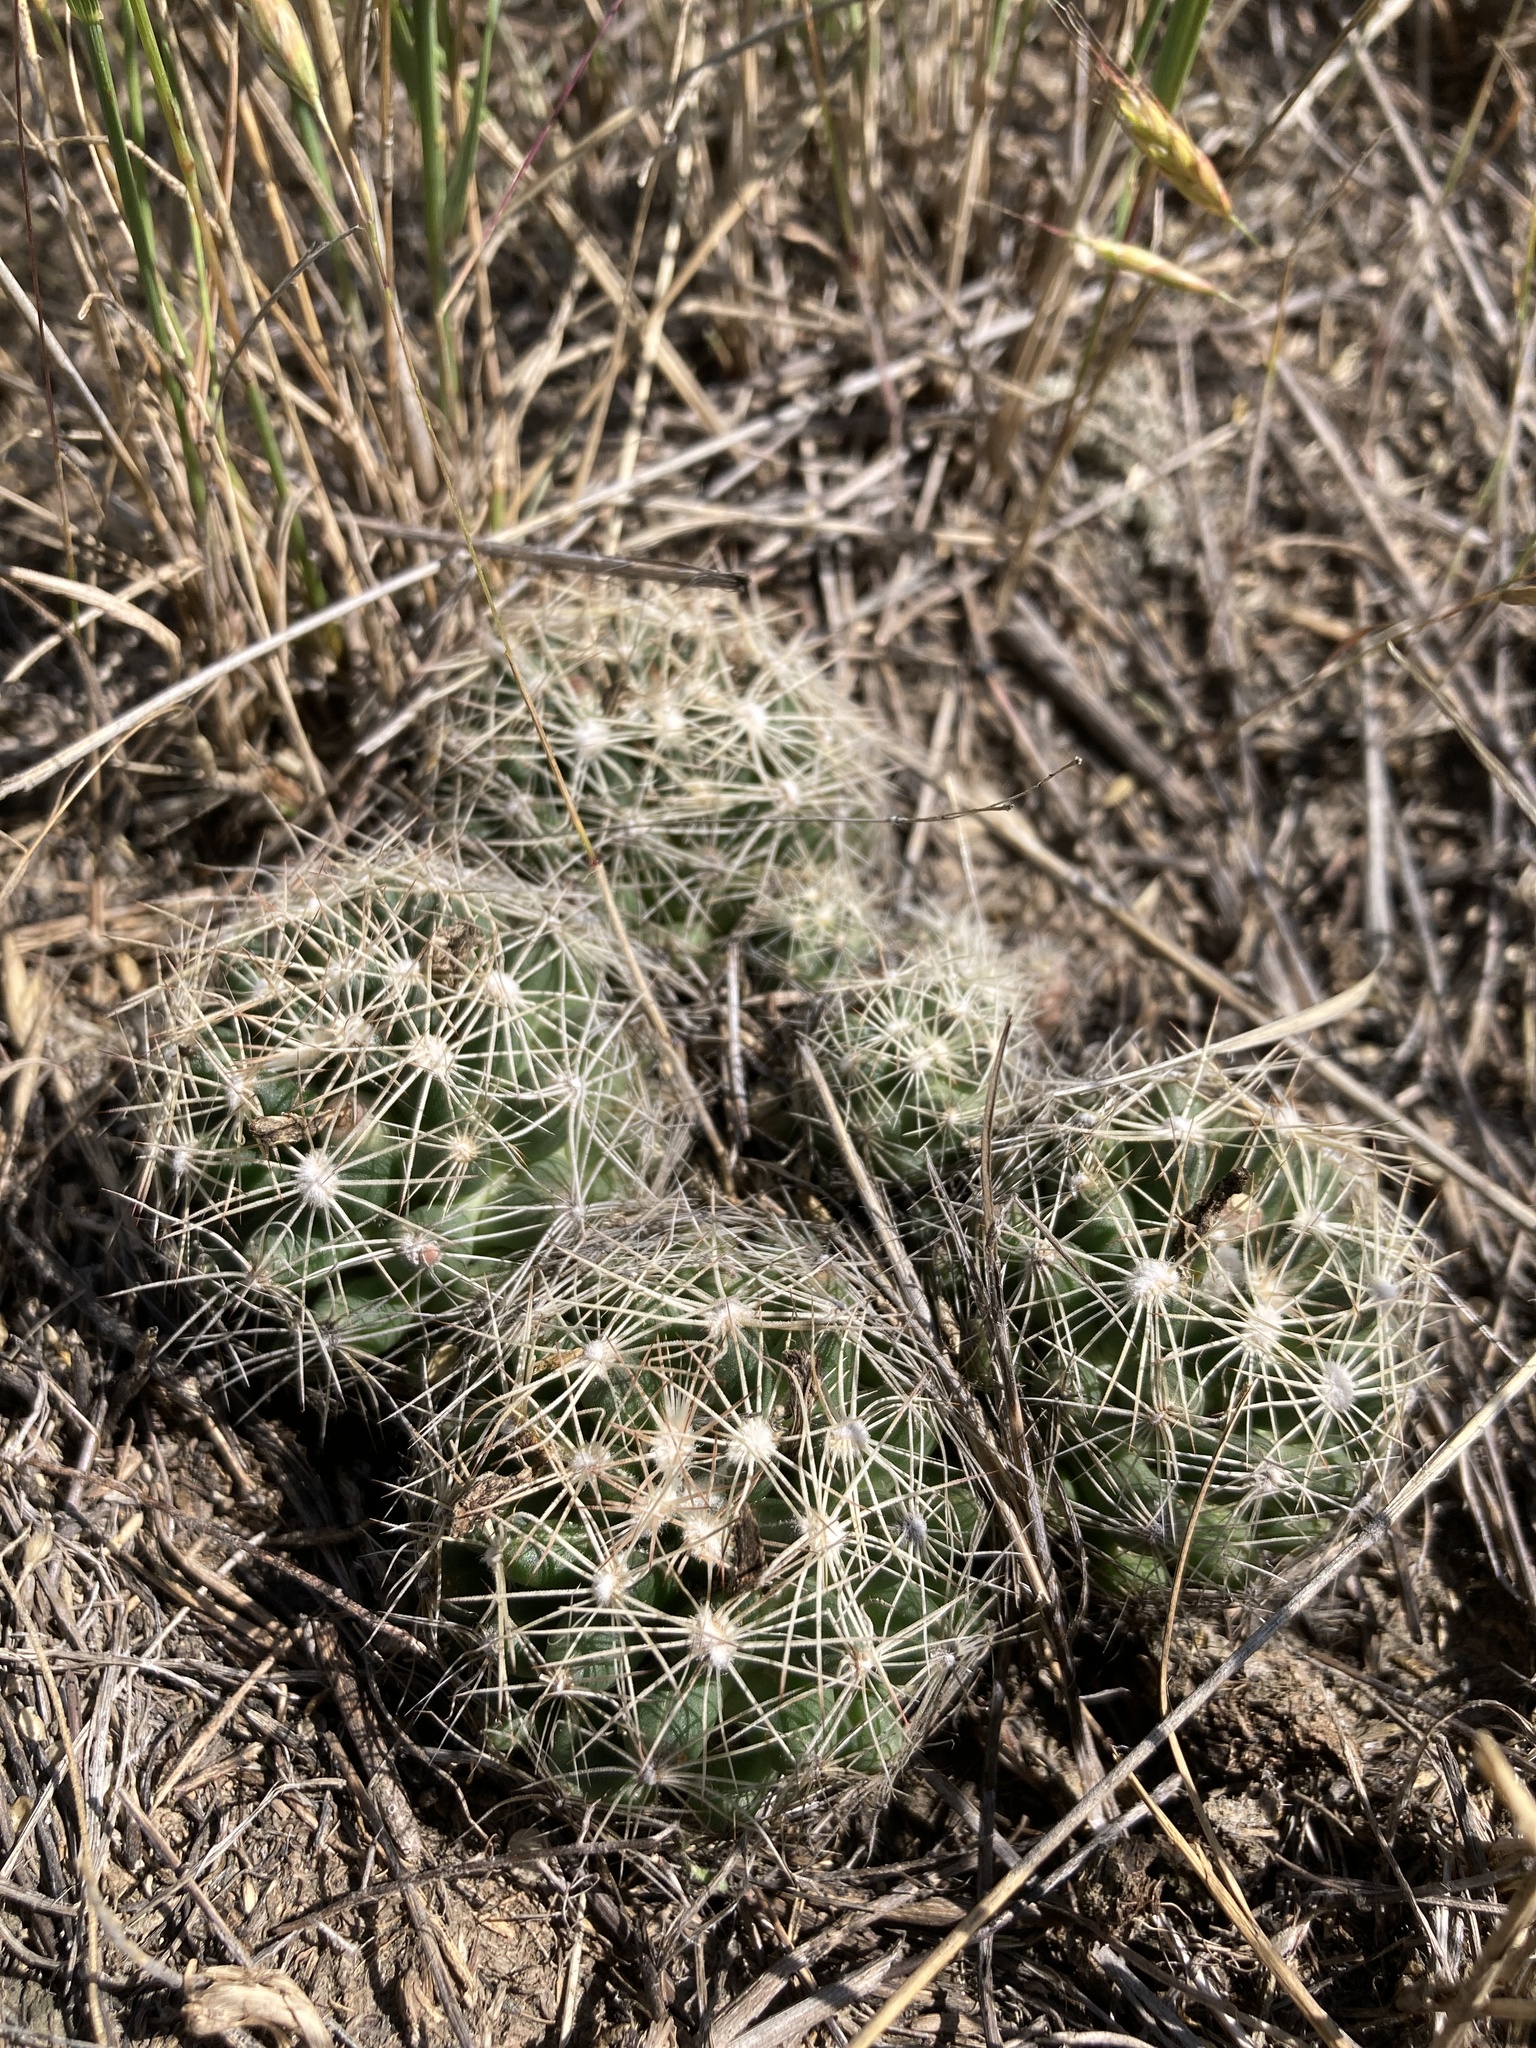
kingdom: Plantae
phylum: Tracheophyta
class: Magnoliopsida
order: Caryophyllales
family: Cactaceae
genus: Pelecyphora
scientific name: Pelecyphora missouriensis
